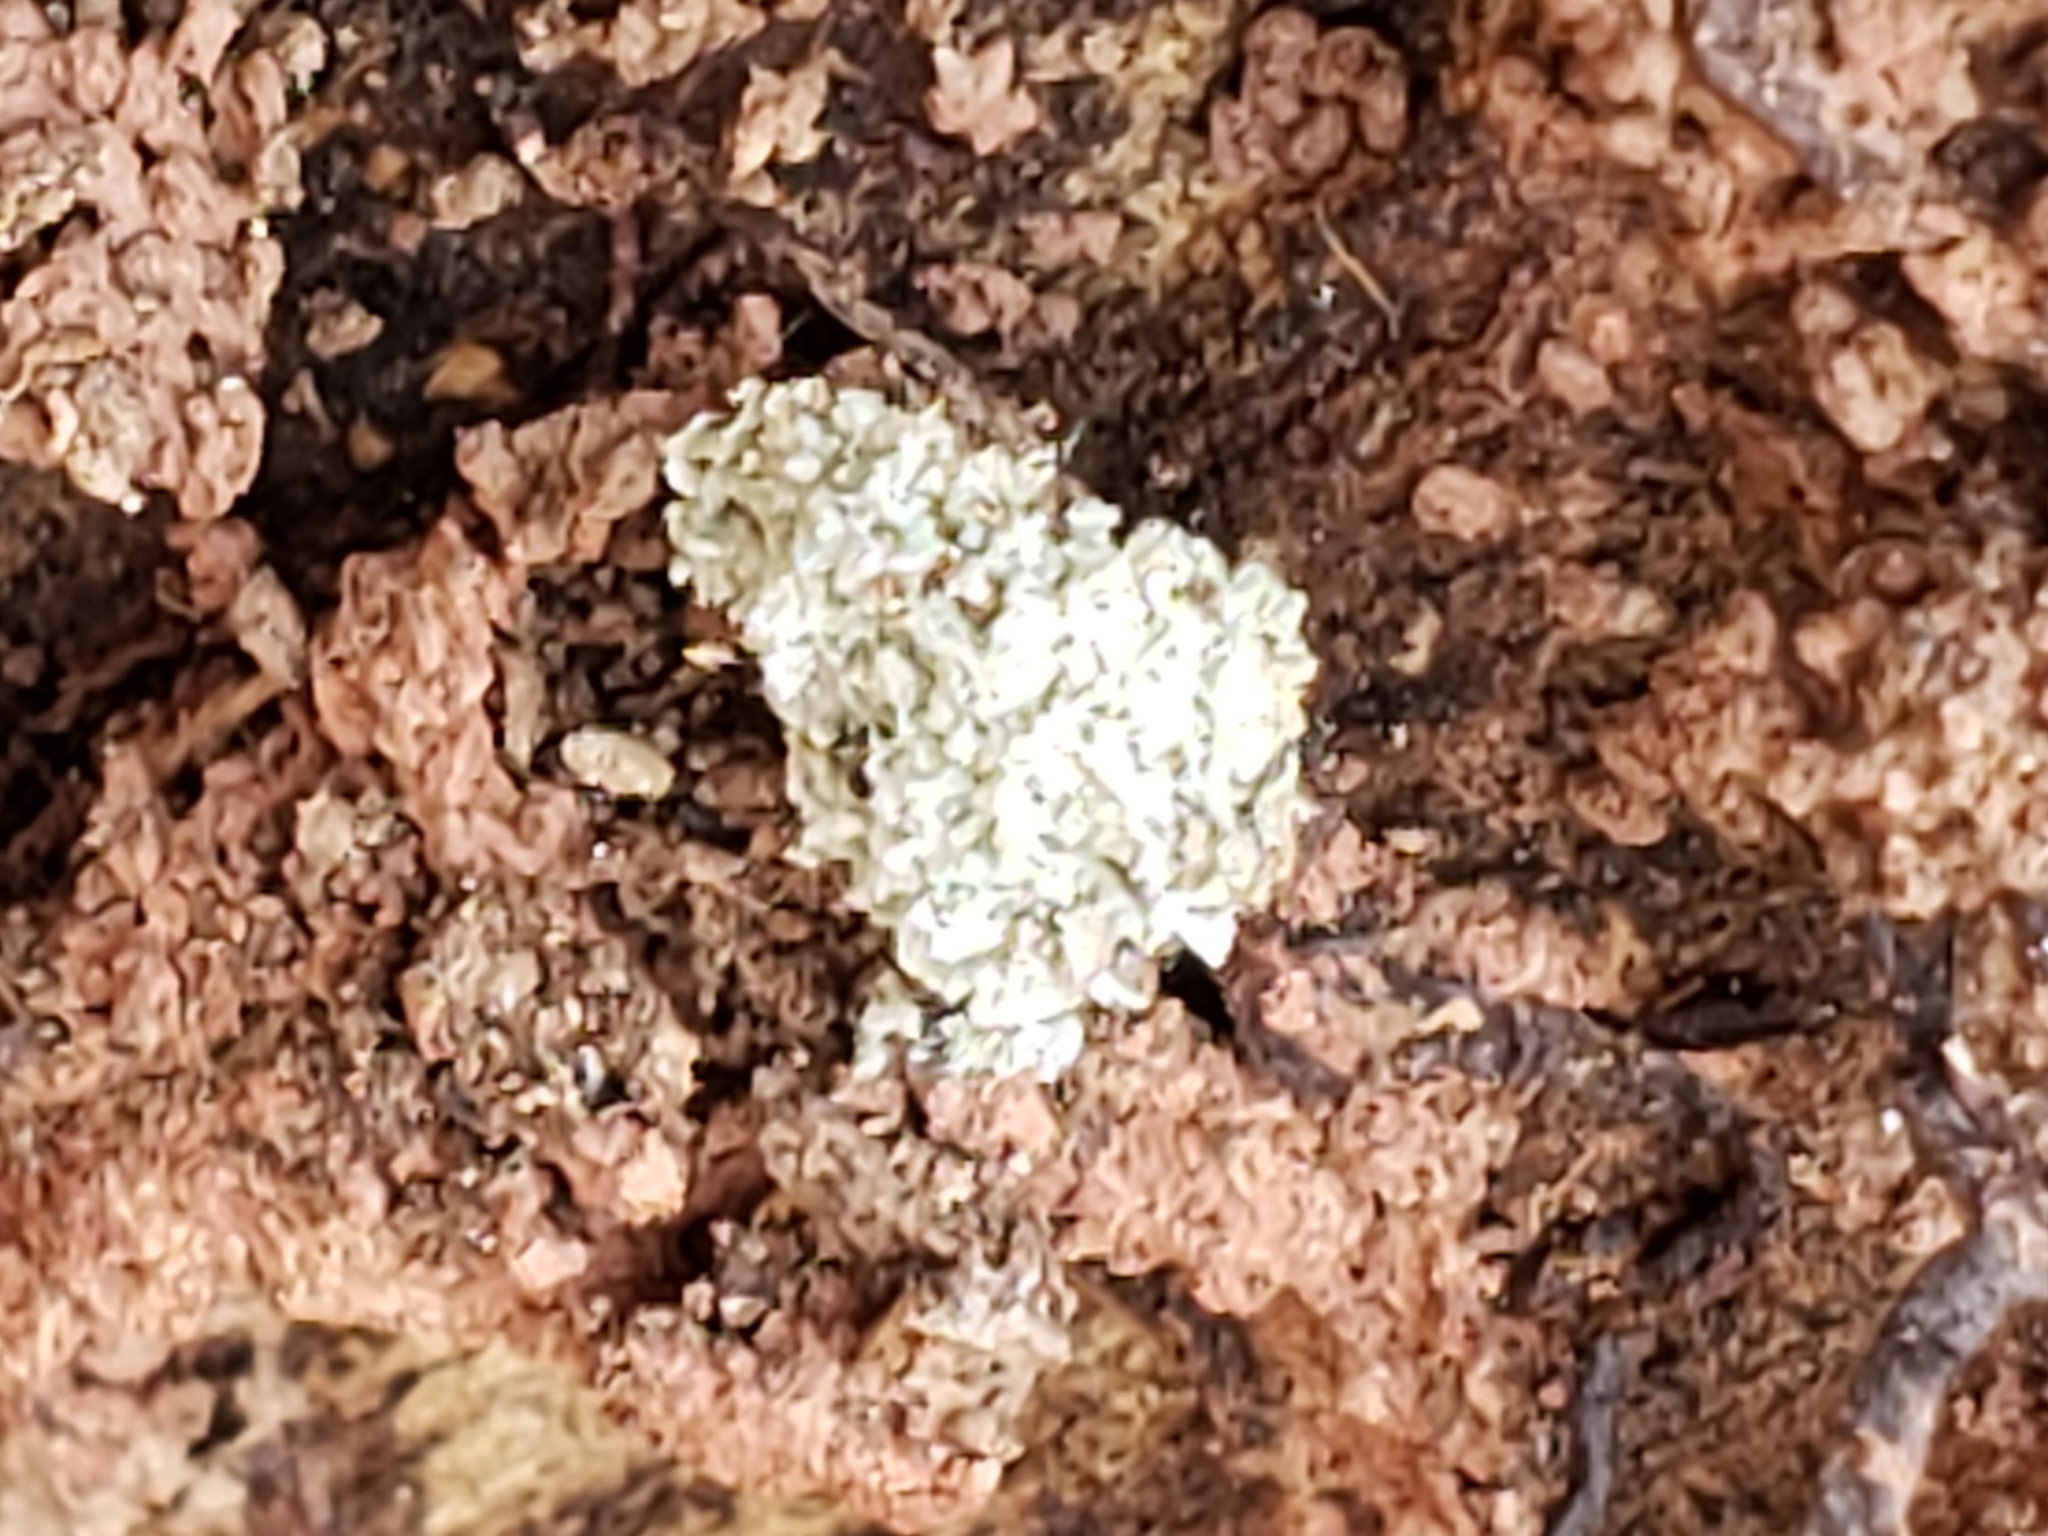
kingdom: Animalia
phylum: Arthropoda
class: Insecta
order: Neuroptera
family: Chrysopidae
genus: Leucochrysa
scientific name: Leucochrysa pavida
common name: Lichen-carrying green lacewing
